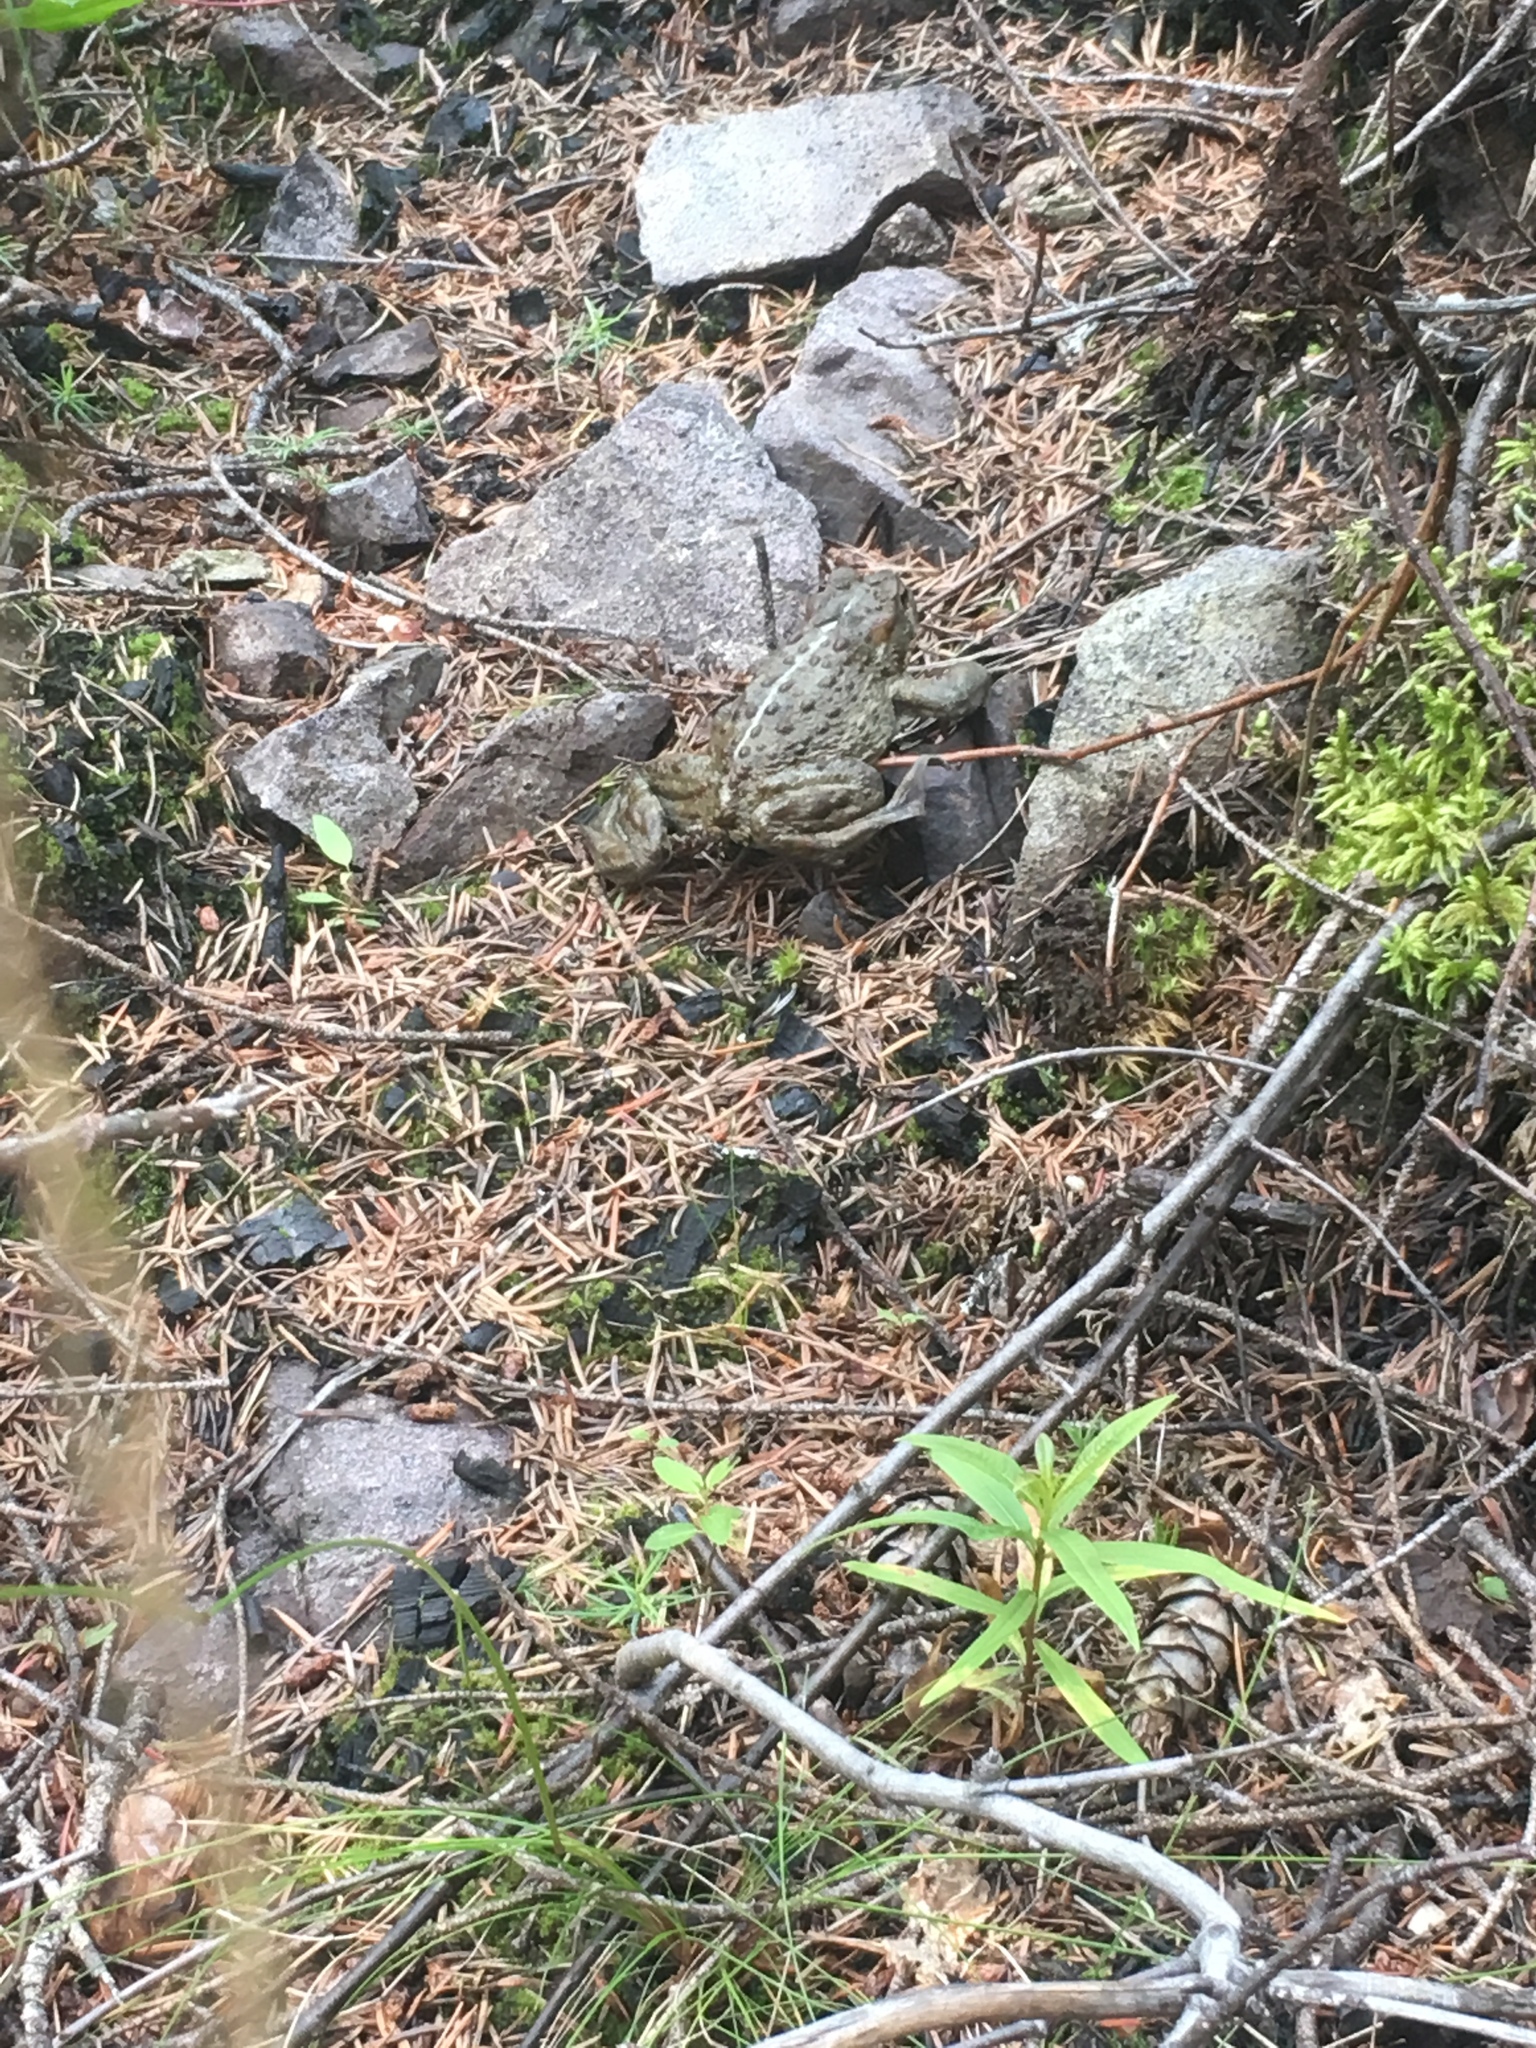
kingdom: Animalia
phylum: Chordata
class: Amphibia
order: Anura
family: Bufonidae
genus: Anaxyrus
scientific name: Anaxyrus boreas
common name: Western toad
